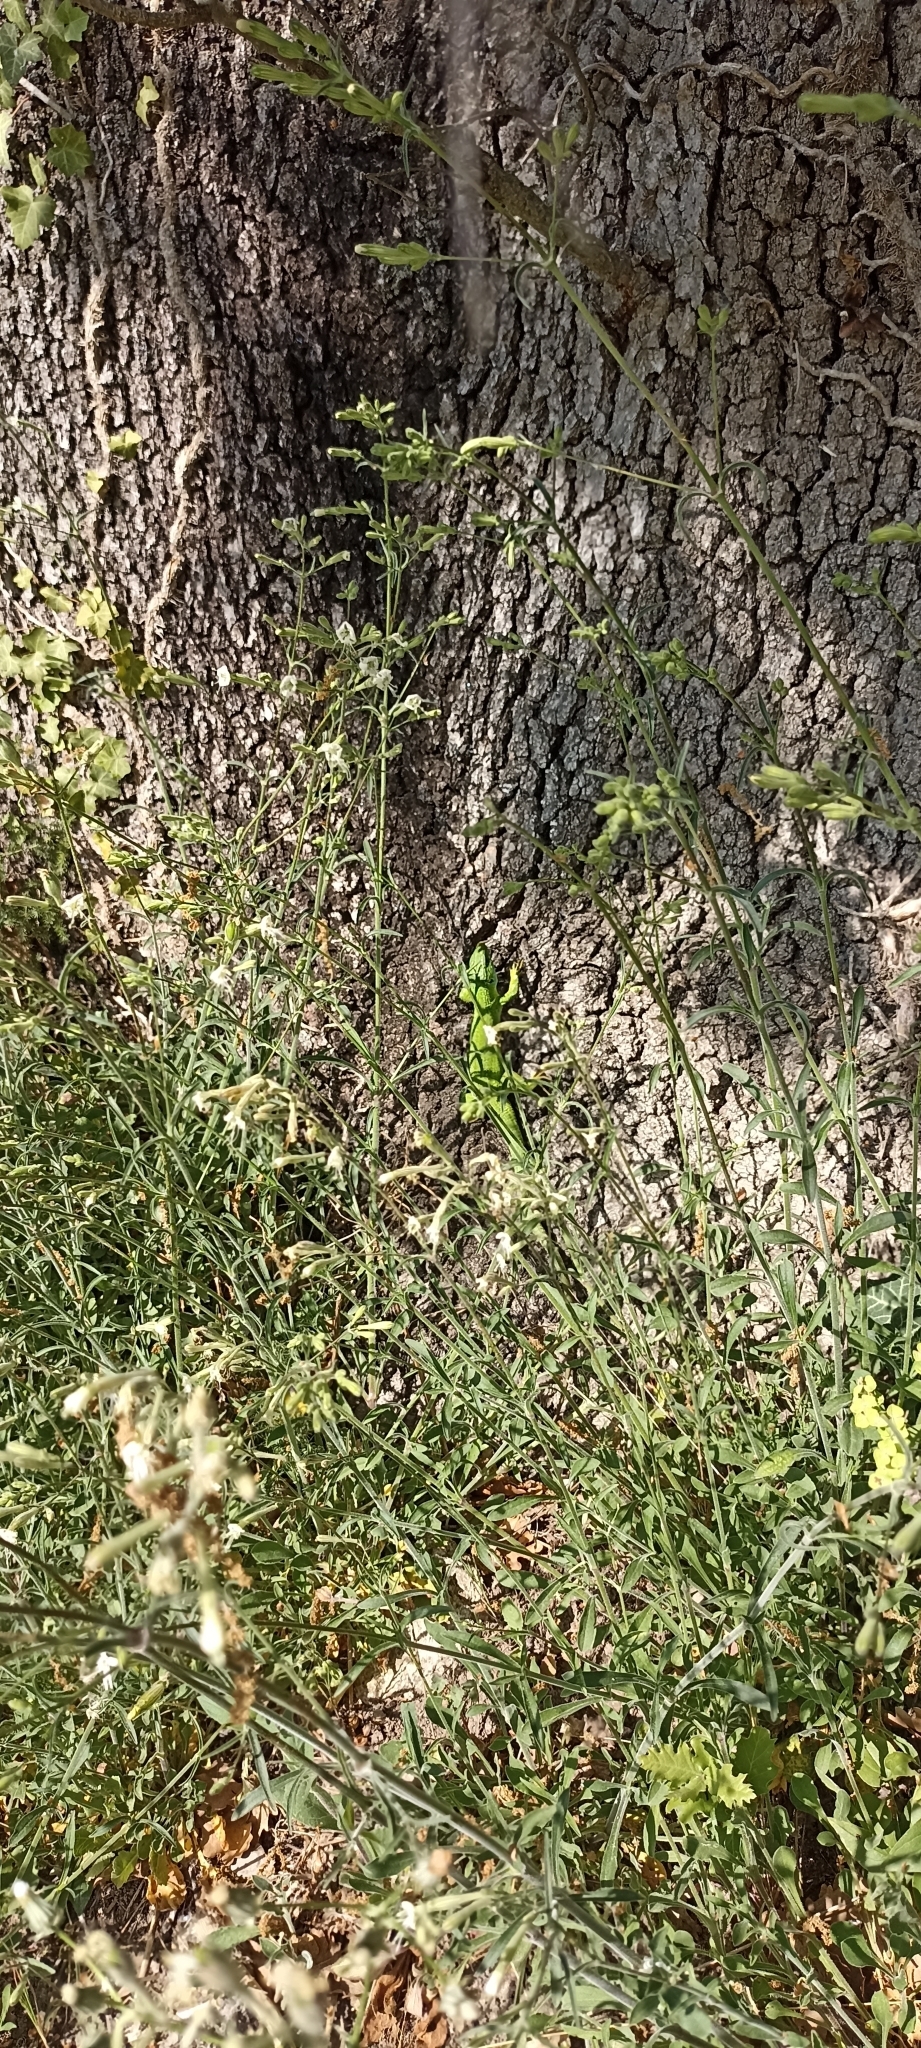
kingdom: Animalia
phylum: Chordata
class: Squamata
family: Lacertidae
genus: Lacerta
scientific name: Lacerta bilineata
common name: Western green lizard
